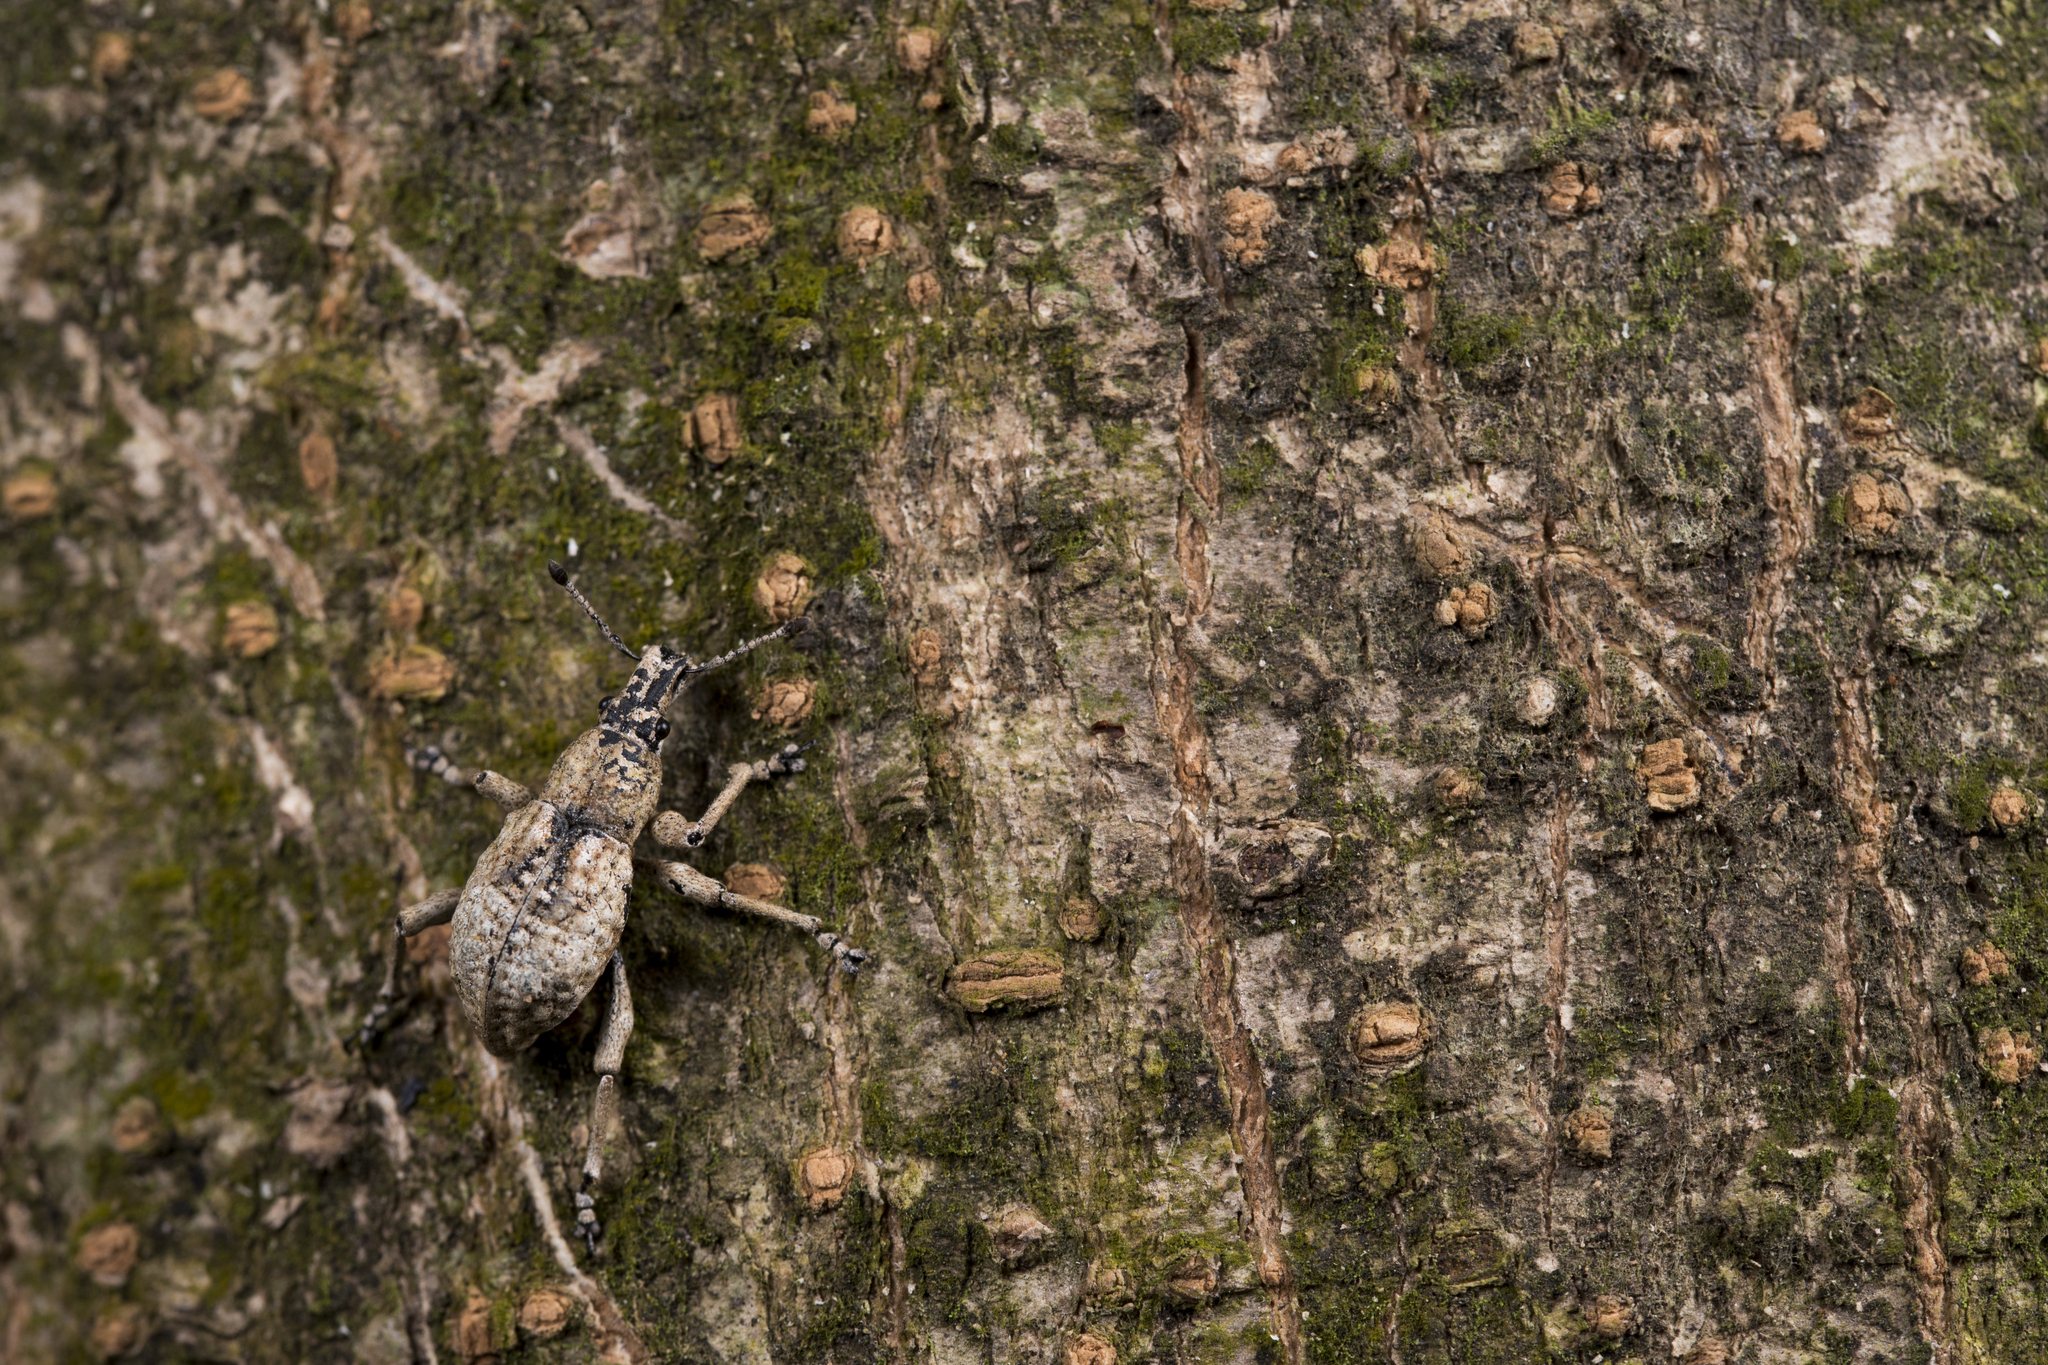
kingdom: Animalia
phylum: Arthropoda
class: Insecta
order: Coleoptera
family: Curculionidae
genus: Dermatoxenus
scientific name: Dermatoxenus caesicollis
